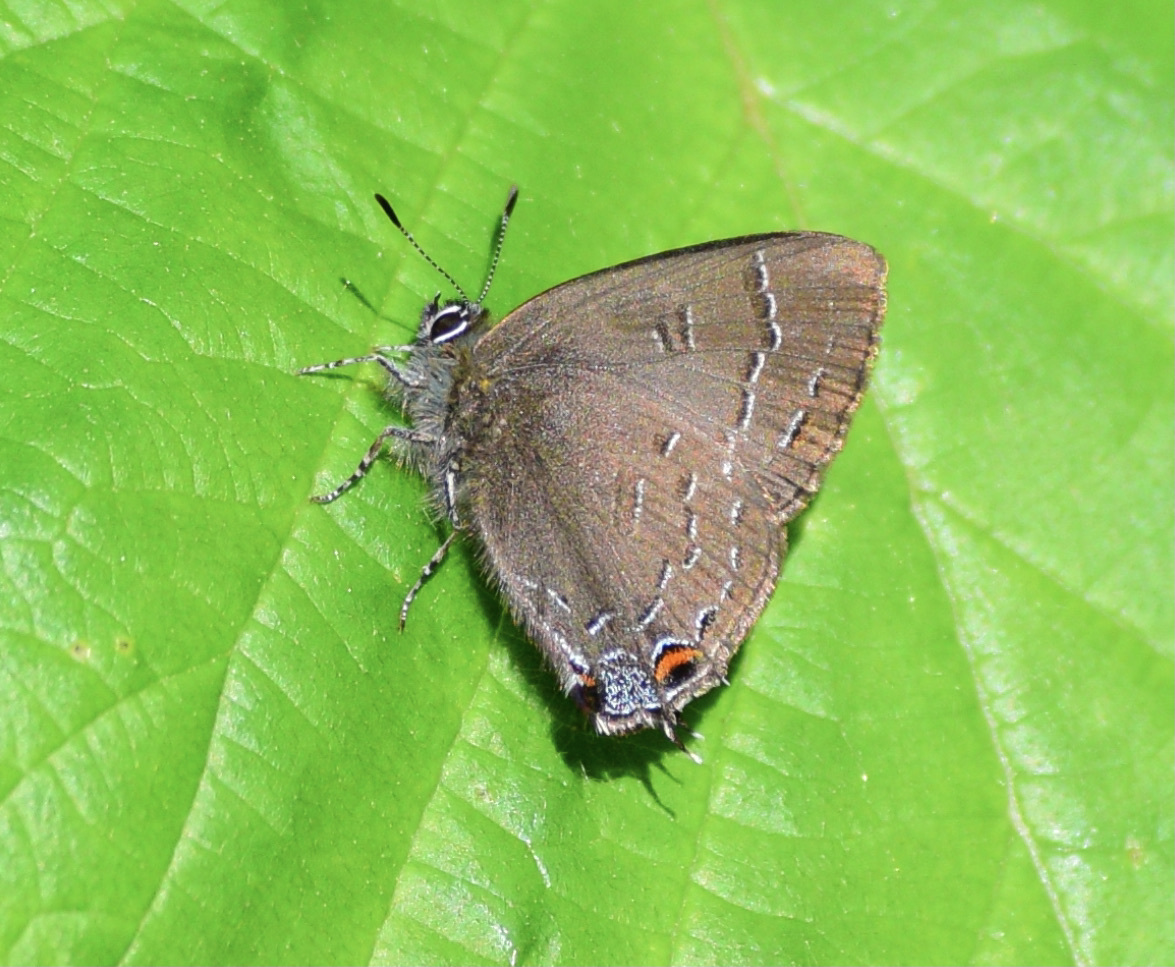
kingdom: Animalia
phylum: Arthropoda
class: Insecta
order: Lepidoptera
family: Lycaenidae
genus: Satyrium
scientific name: Satyrium calanus
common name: Banded hairstreak
